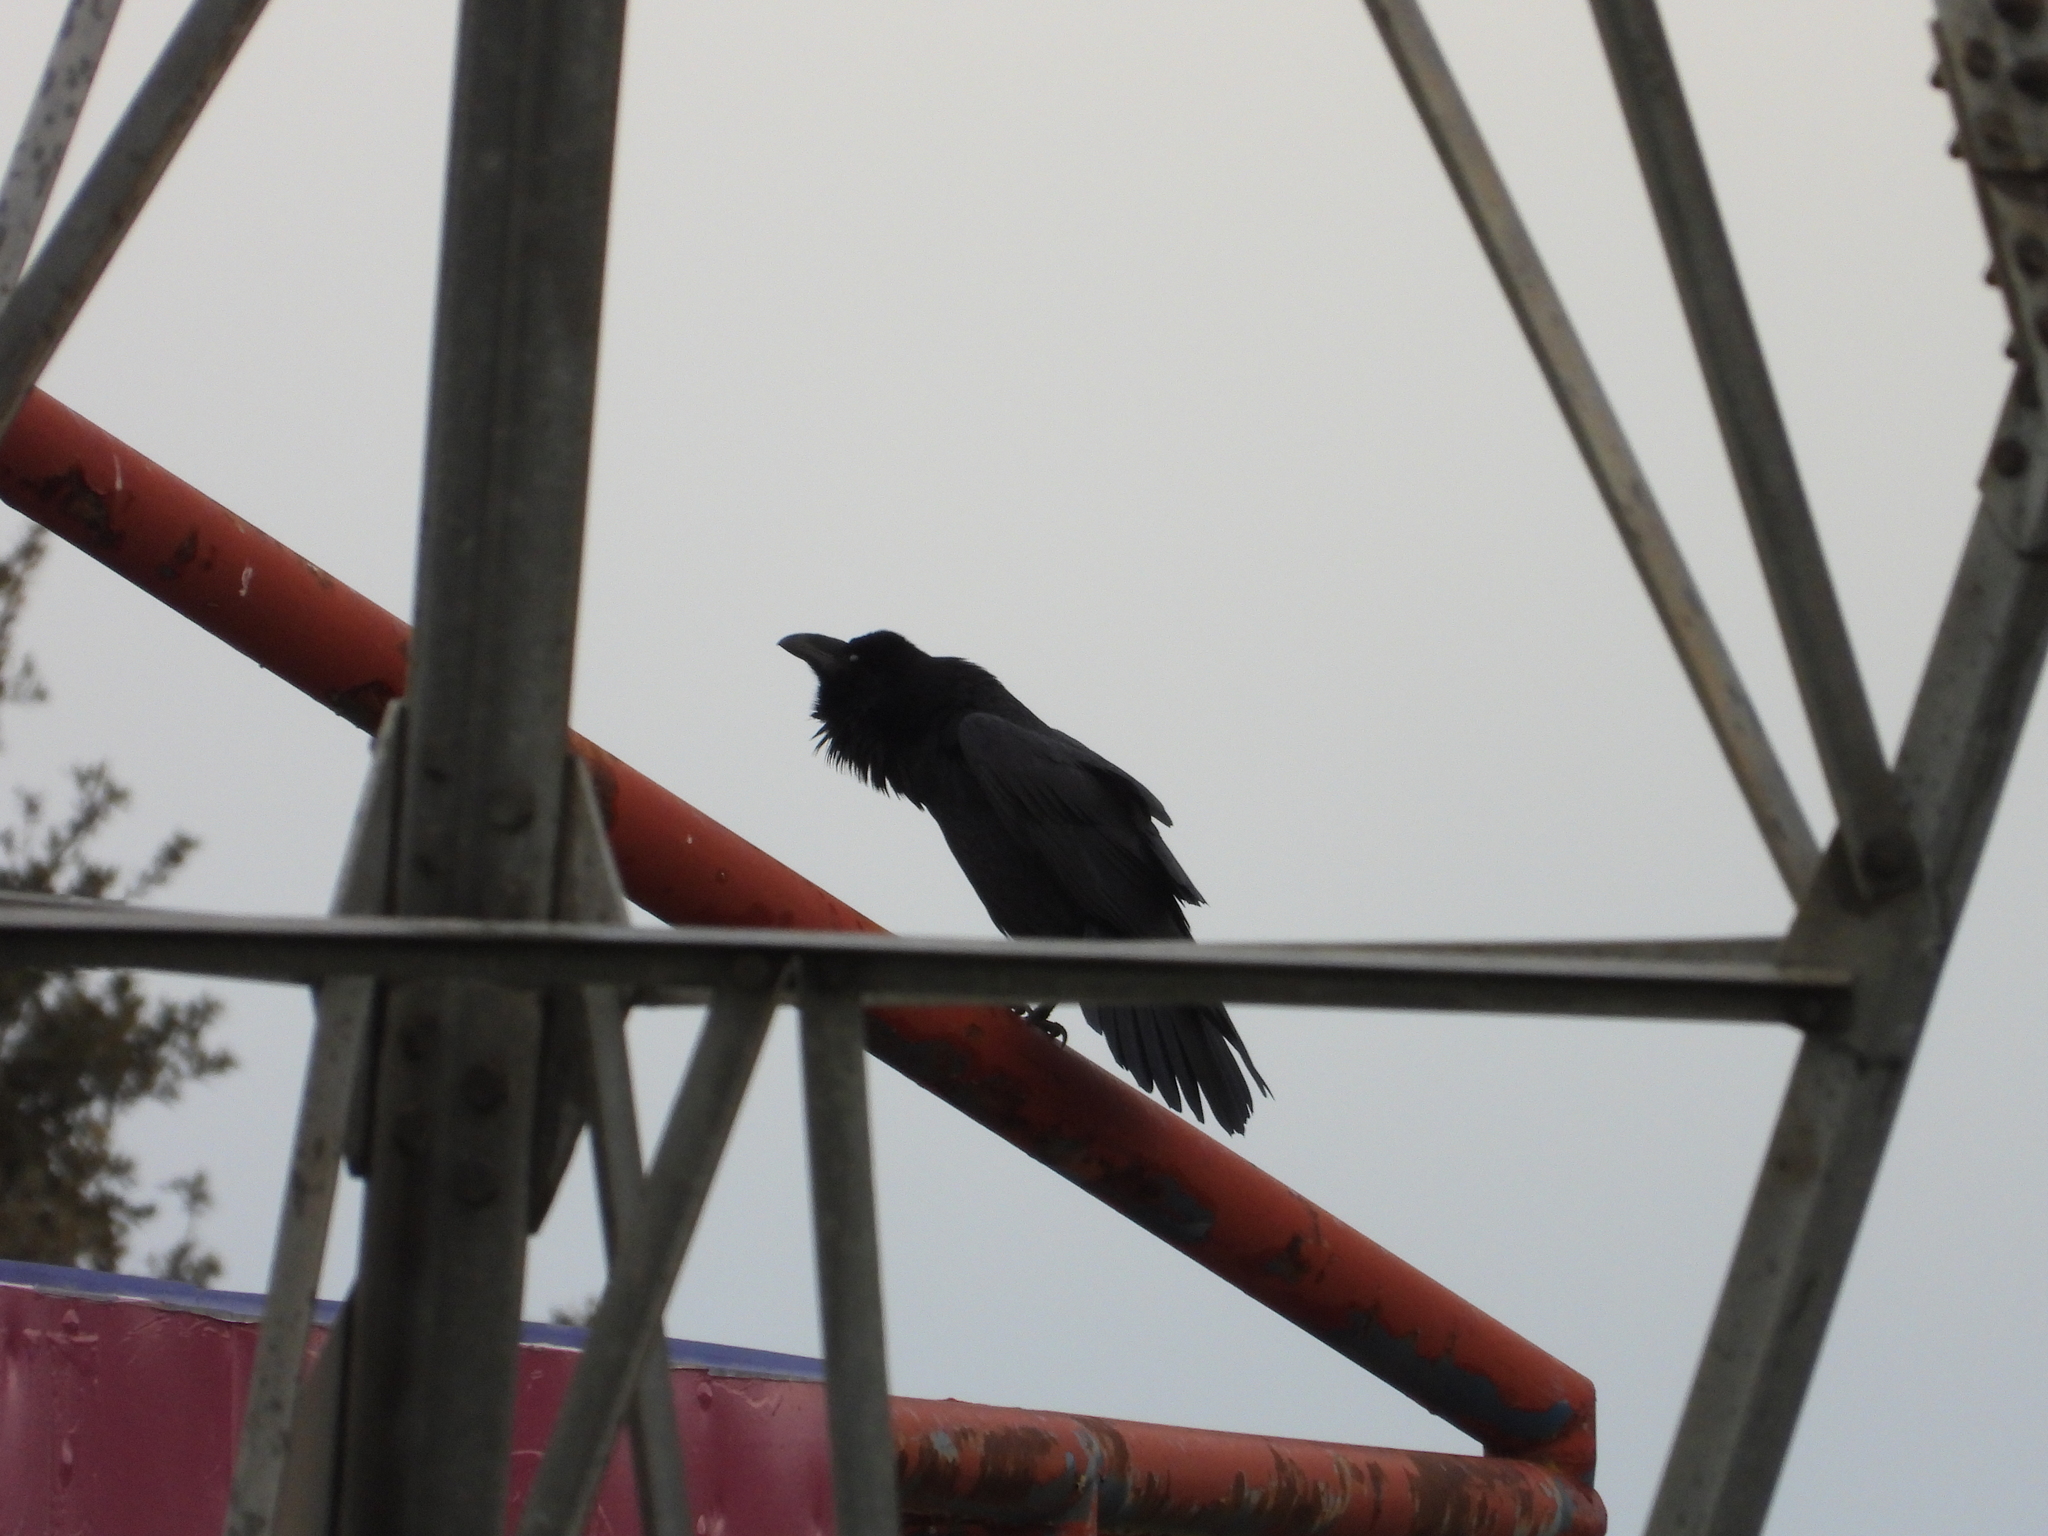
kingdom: Animalia
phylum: Chordata
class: Aves
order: Passeriformes
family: Corvidae
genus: Corvus
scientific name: Corvus corax
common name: Common raven
